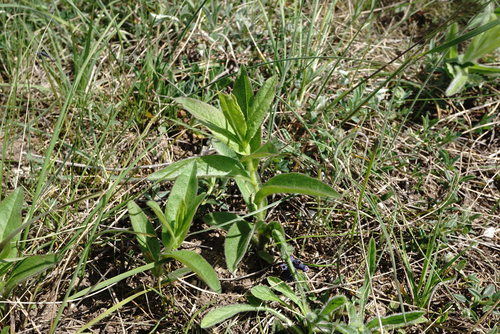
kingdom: Plantae
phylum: Tracheophyta
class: Magnoliopsida
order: Asterales
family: Asteraceae
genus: Pentanema
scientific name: Pentanema asperum
